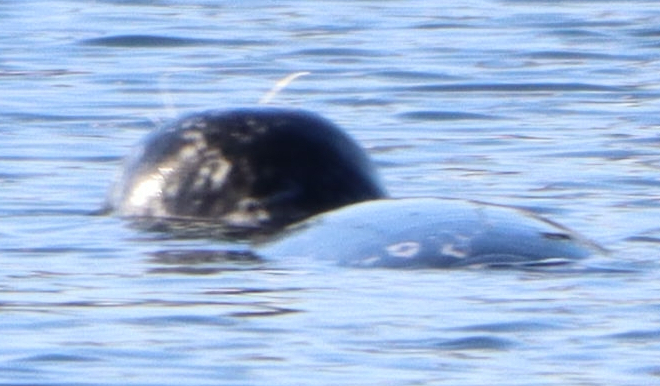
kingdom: Animalia
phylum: Chordata
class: Mammalia
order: Carnivora
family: Phocidae
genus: Phoca
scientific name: Phoca vitulina
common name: Harbor seal
